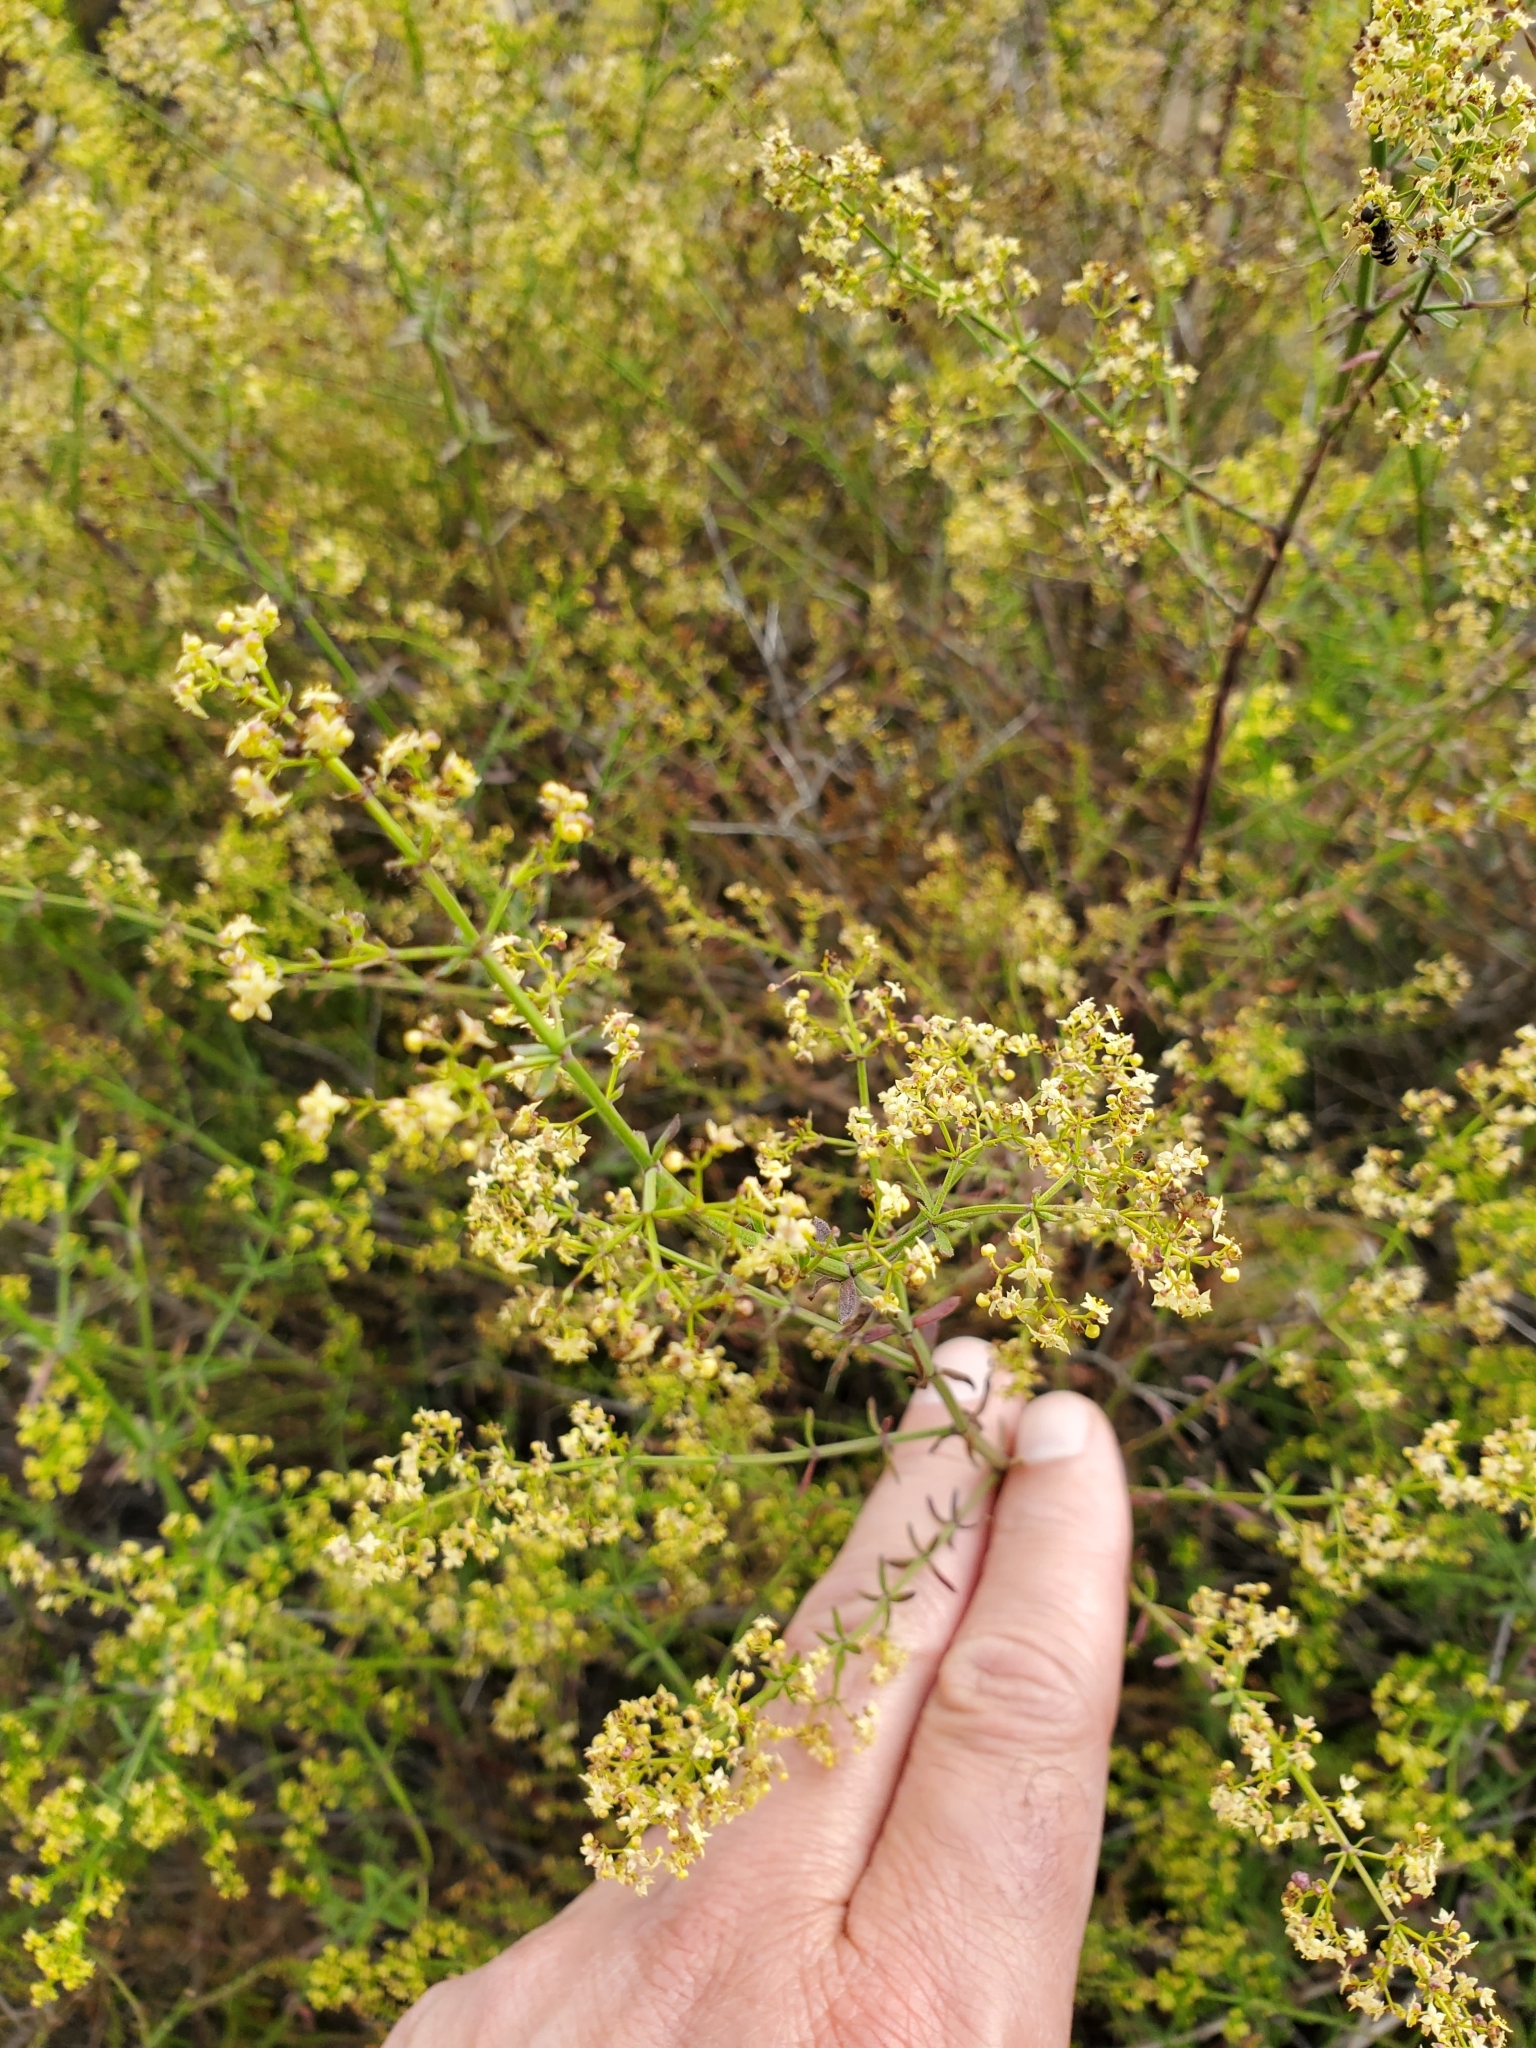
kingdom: Plantae
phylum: Tracheophyta
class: Magnoliopsida
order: Gentianales
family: Rubiaceae
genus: Galium
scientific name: Galium angustifolium
